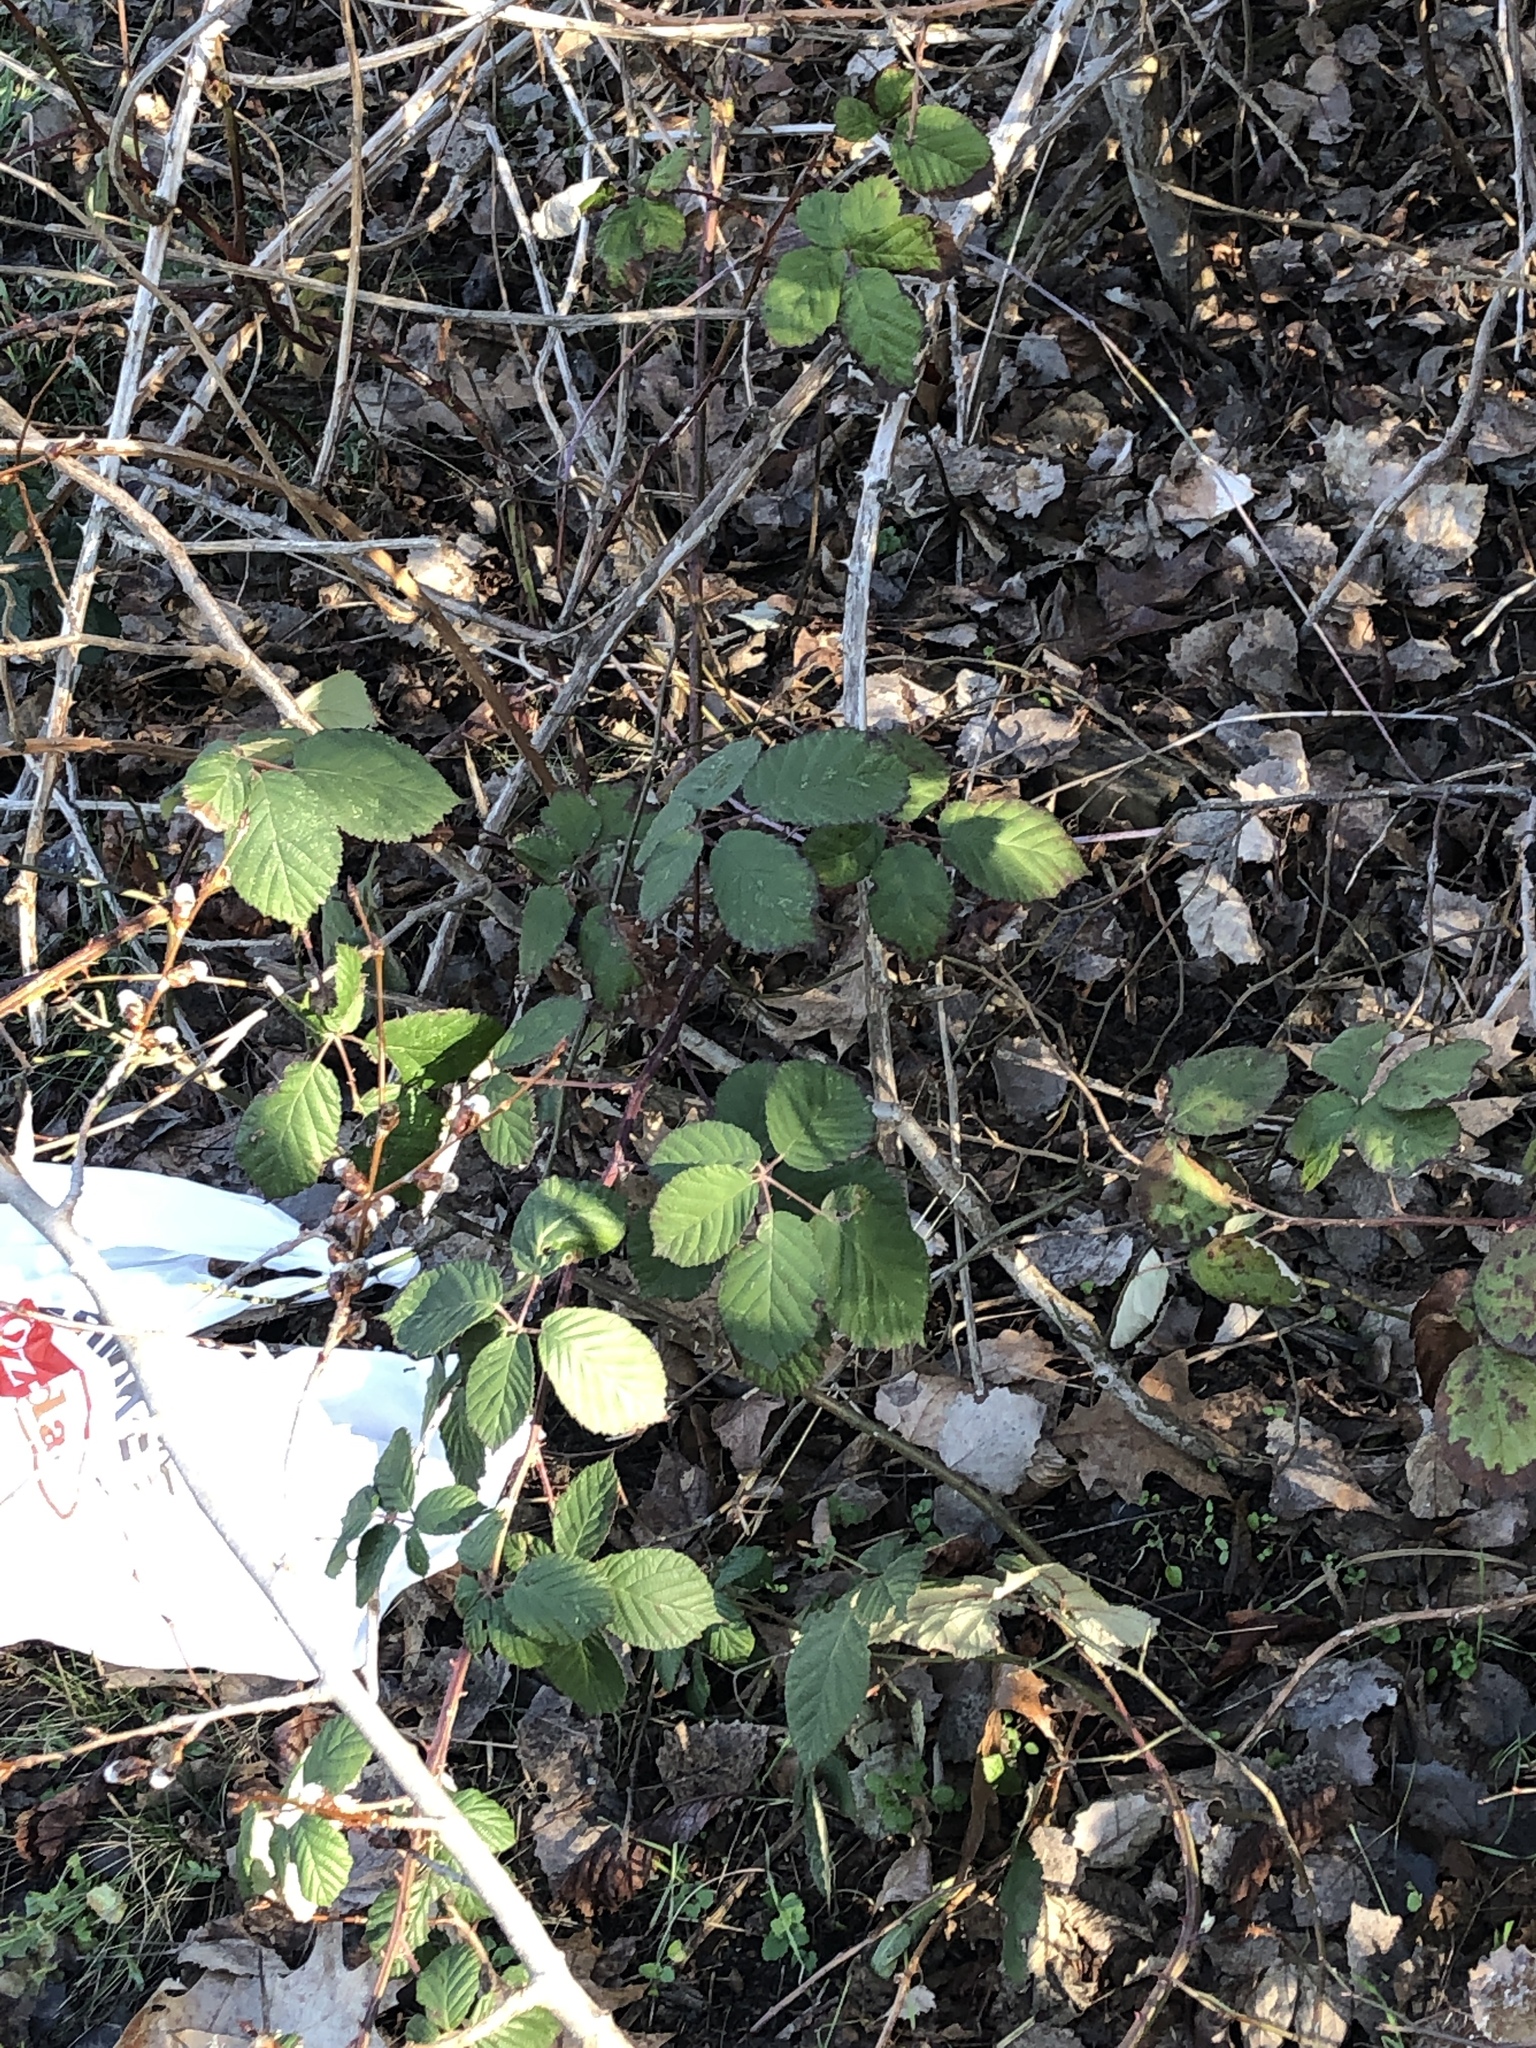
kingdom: Plantae
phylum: Tracheophyta
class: Magnoliopsida
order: Rosales
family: Rosaceae
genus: Rubus
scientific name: Rubus
